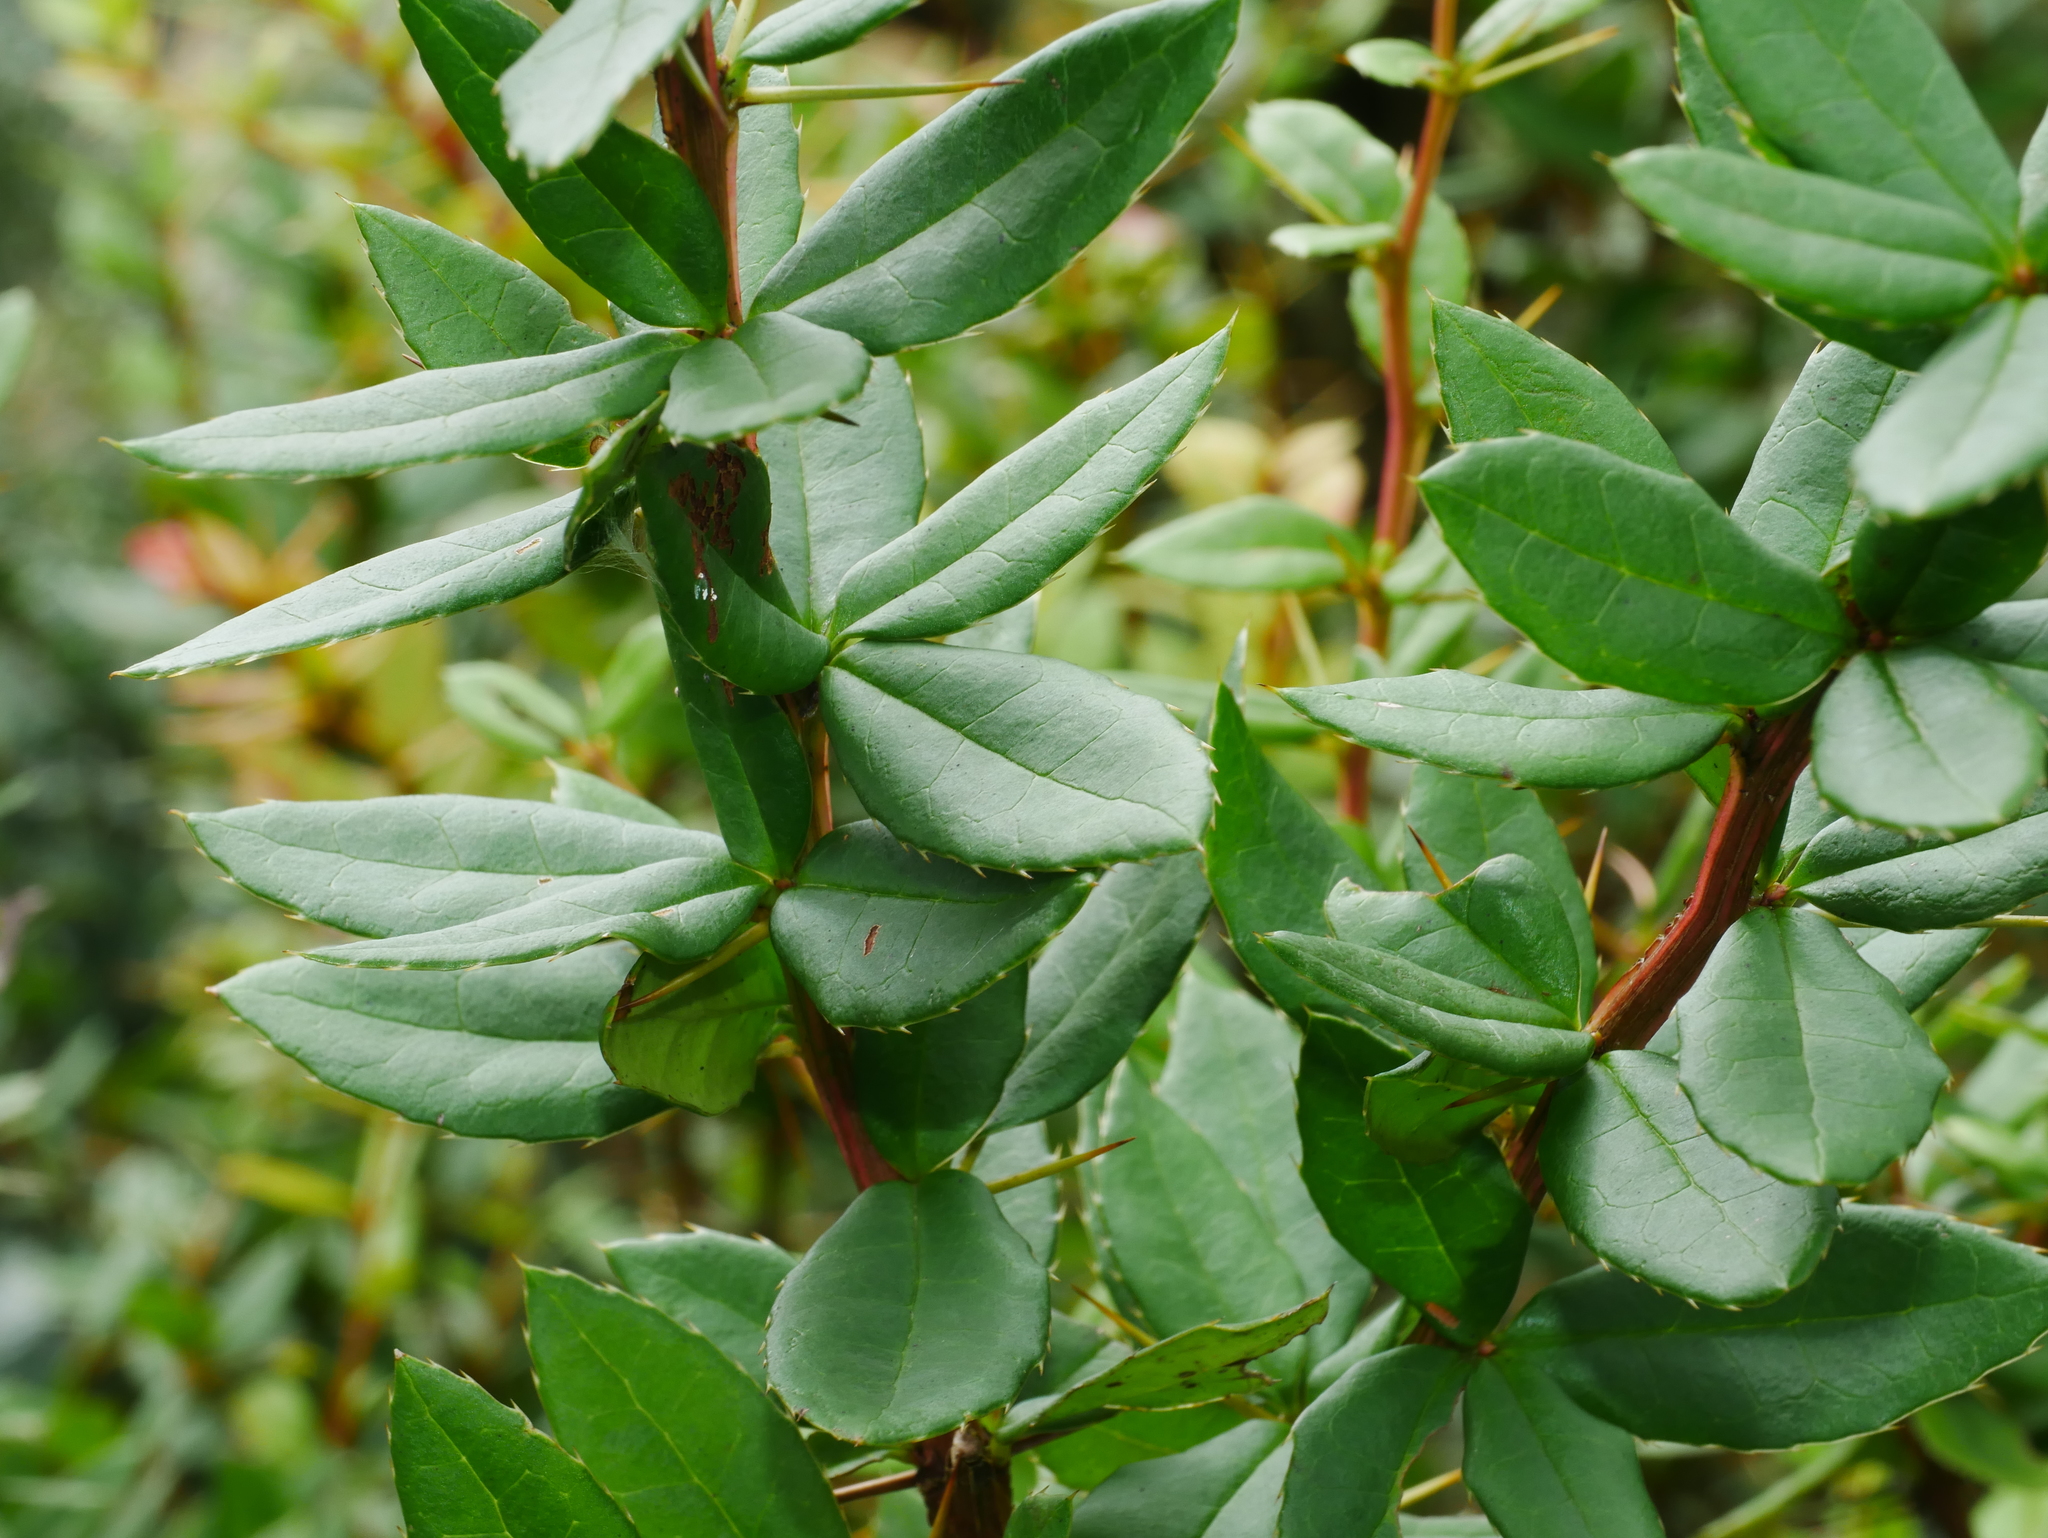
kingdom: Plantae
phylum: Tracheophyta
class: Magnoliopsida
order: Ranunculales
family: Berberidaceae
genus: Berberis
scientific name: Berberis hayatana
